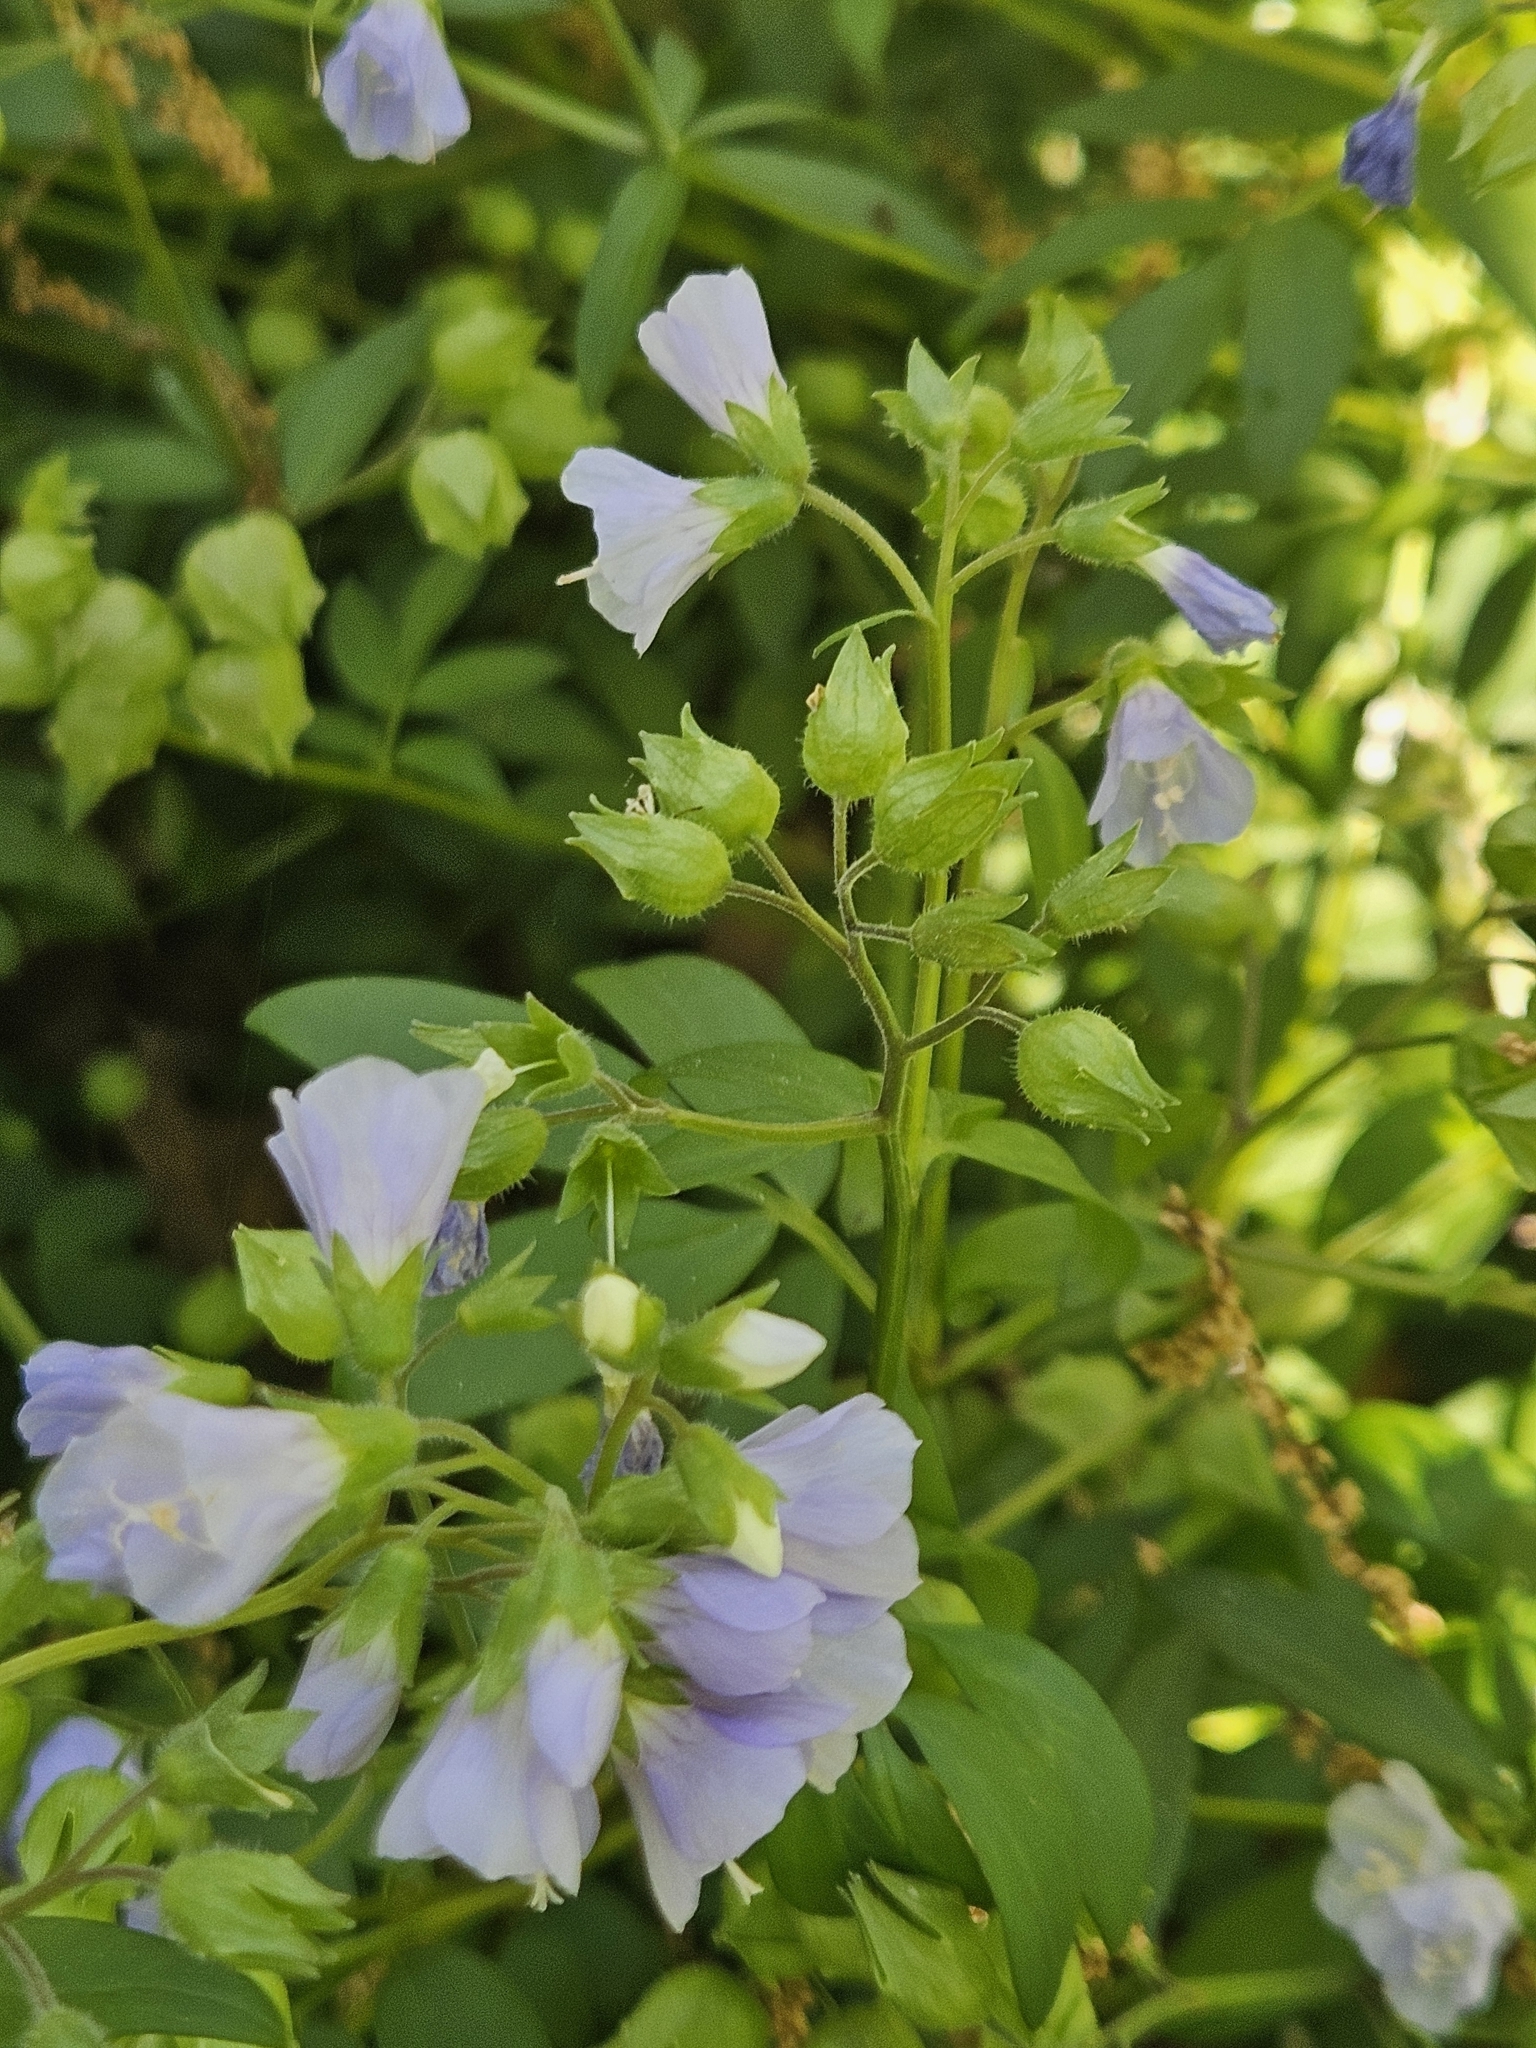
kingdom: Plantae
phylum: Tracheophyta
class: Magnoliopsida
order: Ericales
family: Polemoniaceae
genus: Polemonium
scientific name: Polemonium reptans
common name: Creeping jacob's-ladder
